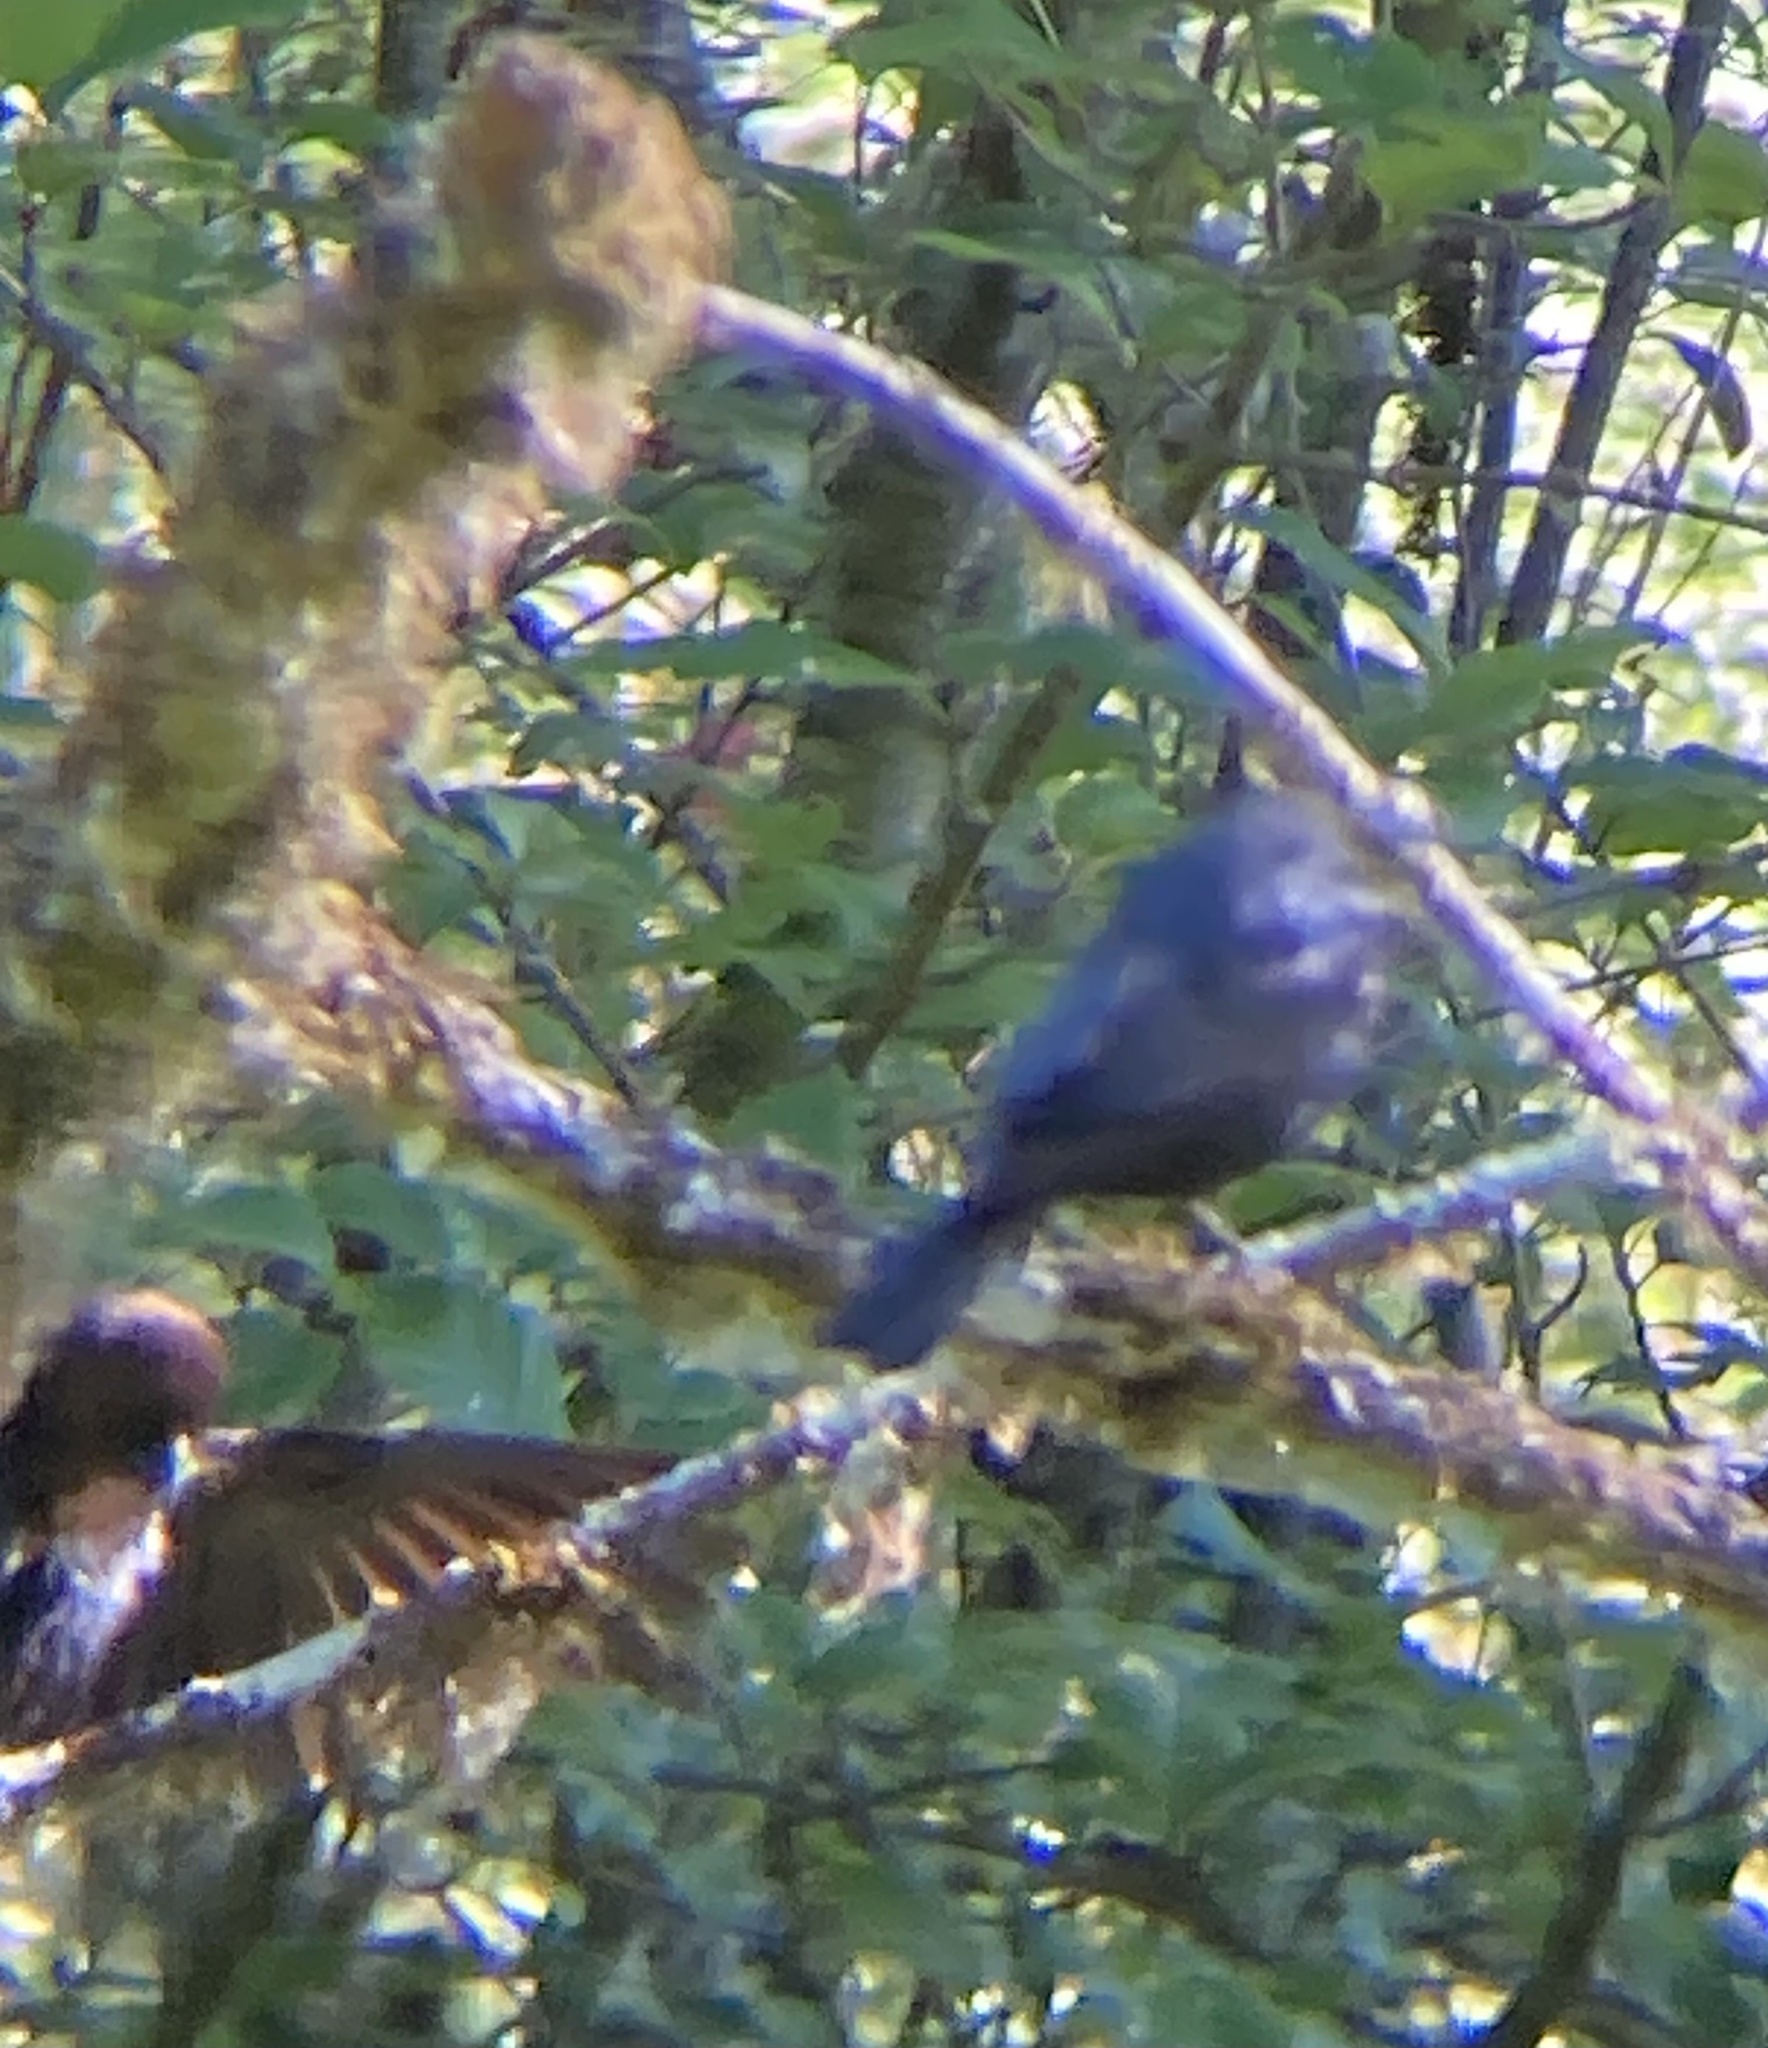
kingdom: Animalia
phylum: Chordata
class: Aves
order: Passeriformes
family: Icteridae
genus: Molothrus
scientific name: Molothrus ater
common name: Brown-headed cowbird
